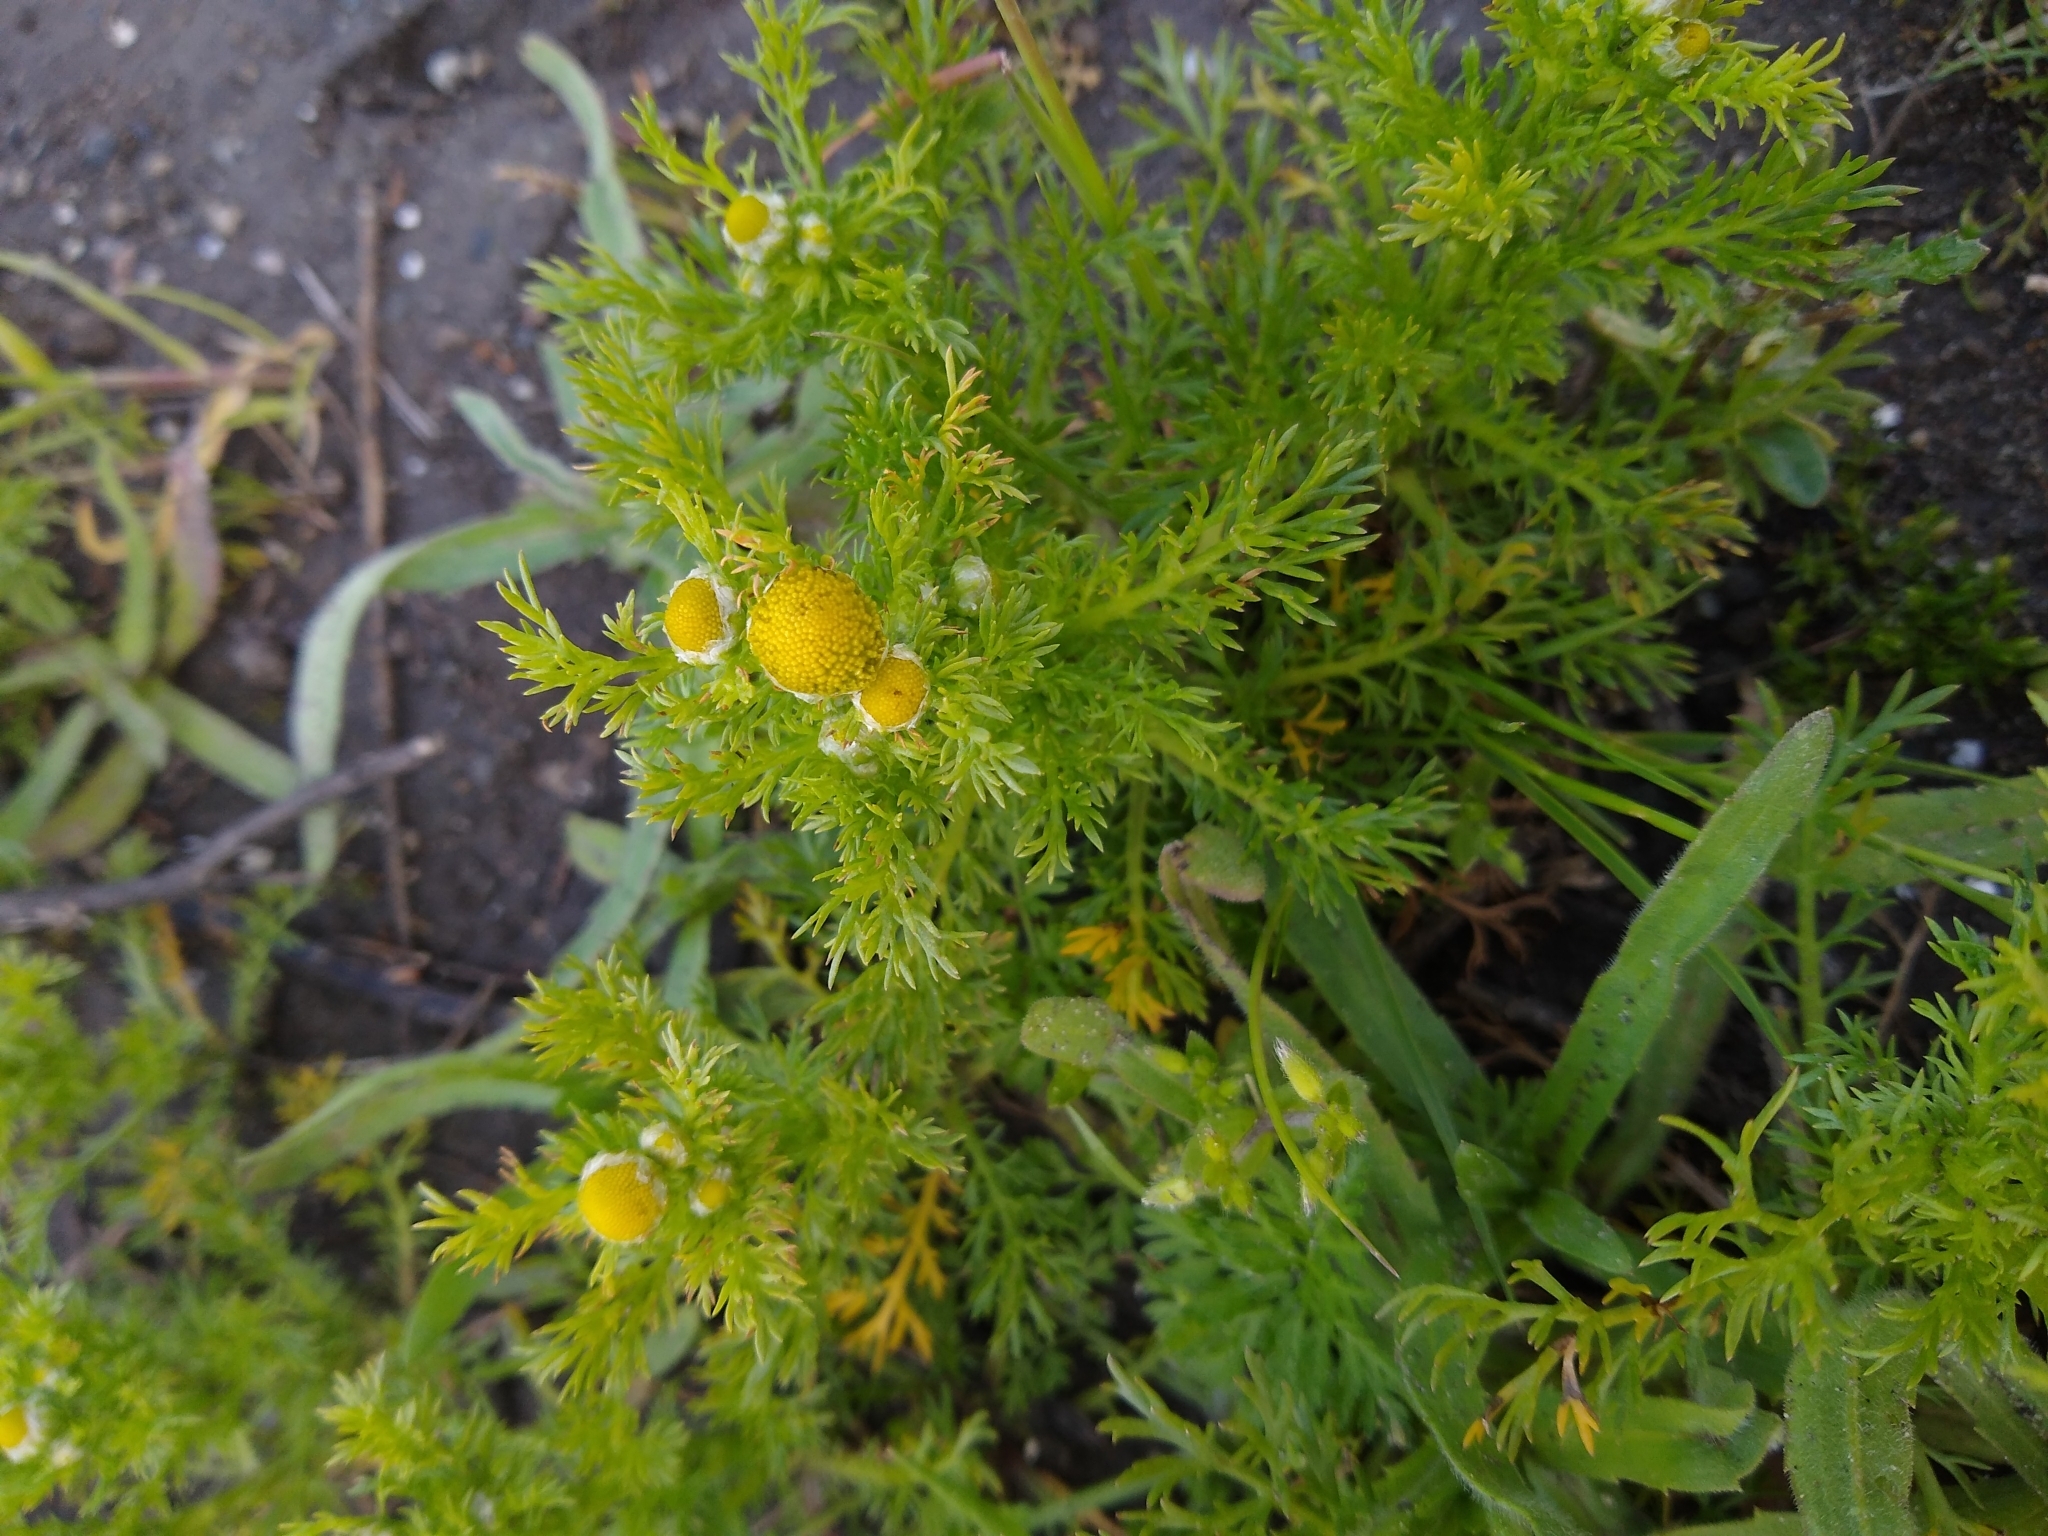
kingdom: Plantae
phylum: Tracheophyta
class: Magnoliopsida
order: Asterales
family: Asteraceae
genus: Matricaria
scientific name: Matricaria discoidea
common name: Disc mayweed
